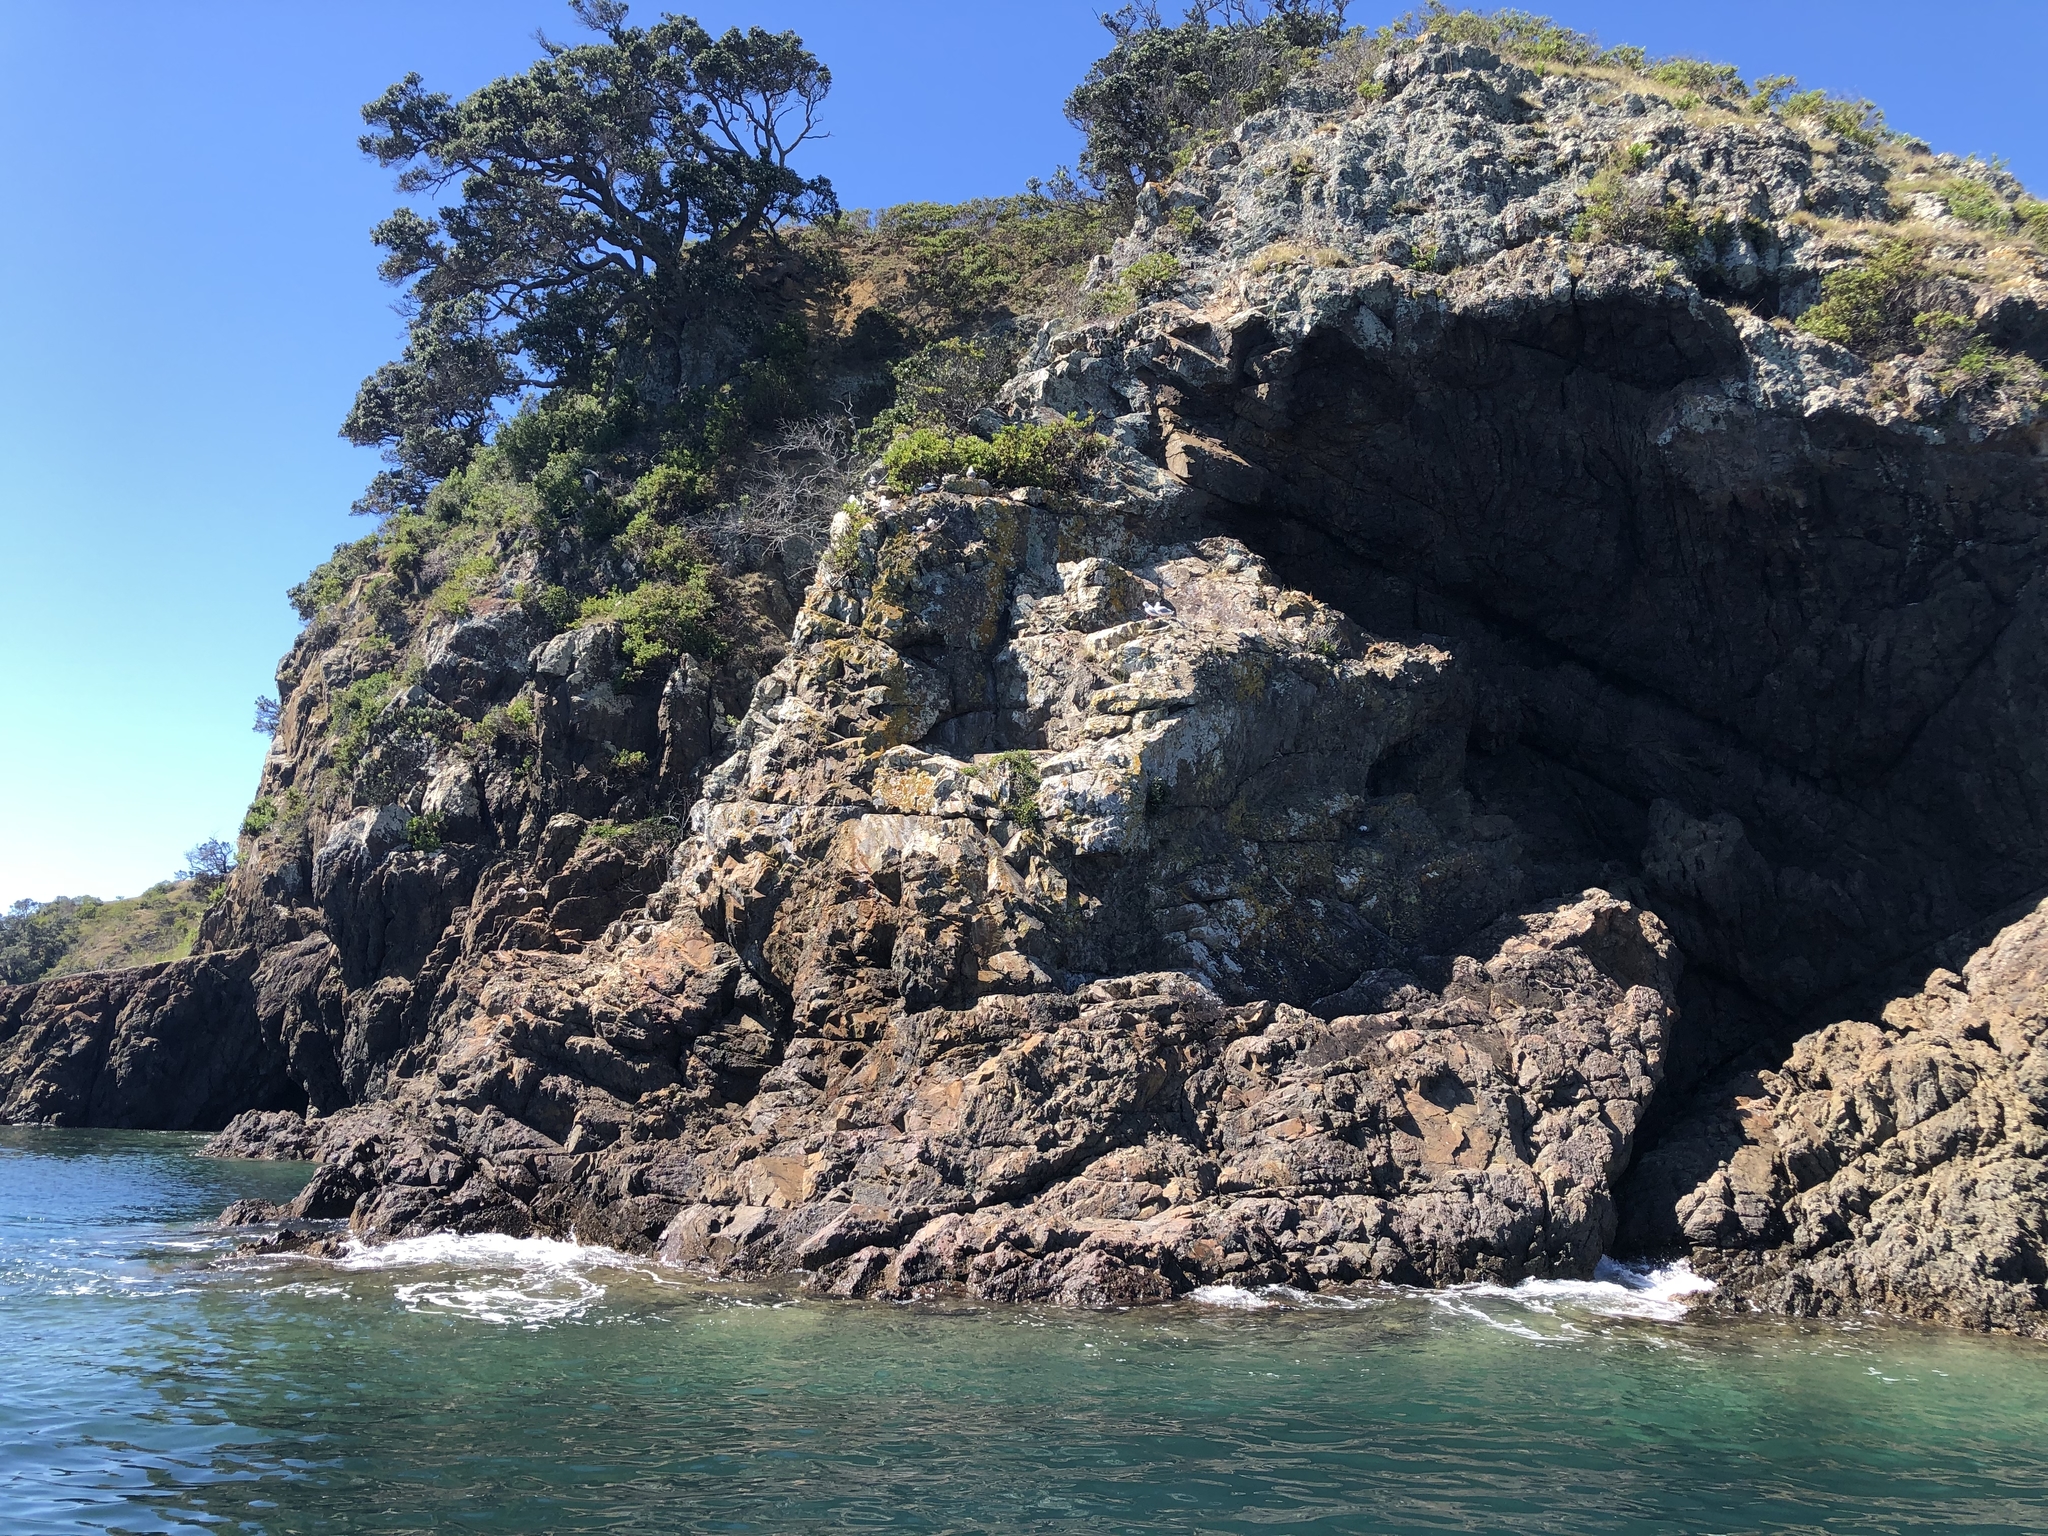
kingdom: Animalia
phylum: Chordata
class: Aves
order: Charadriiformes
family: Laridae
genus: Chroicocephalus
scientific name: Chroicocephalus novaehollandiae
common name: Silver gull
